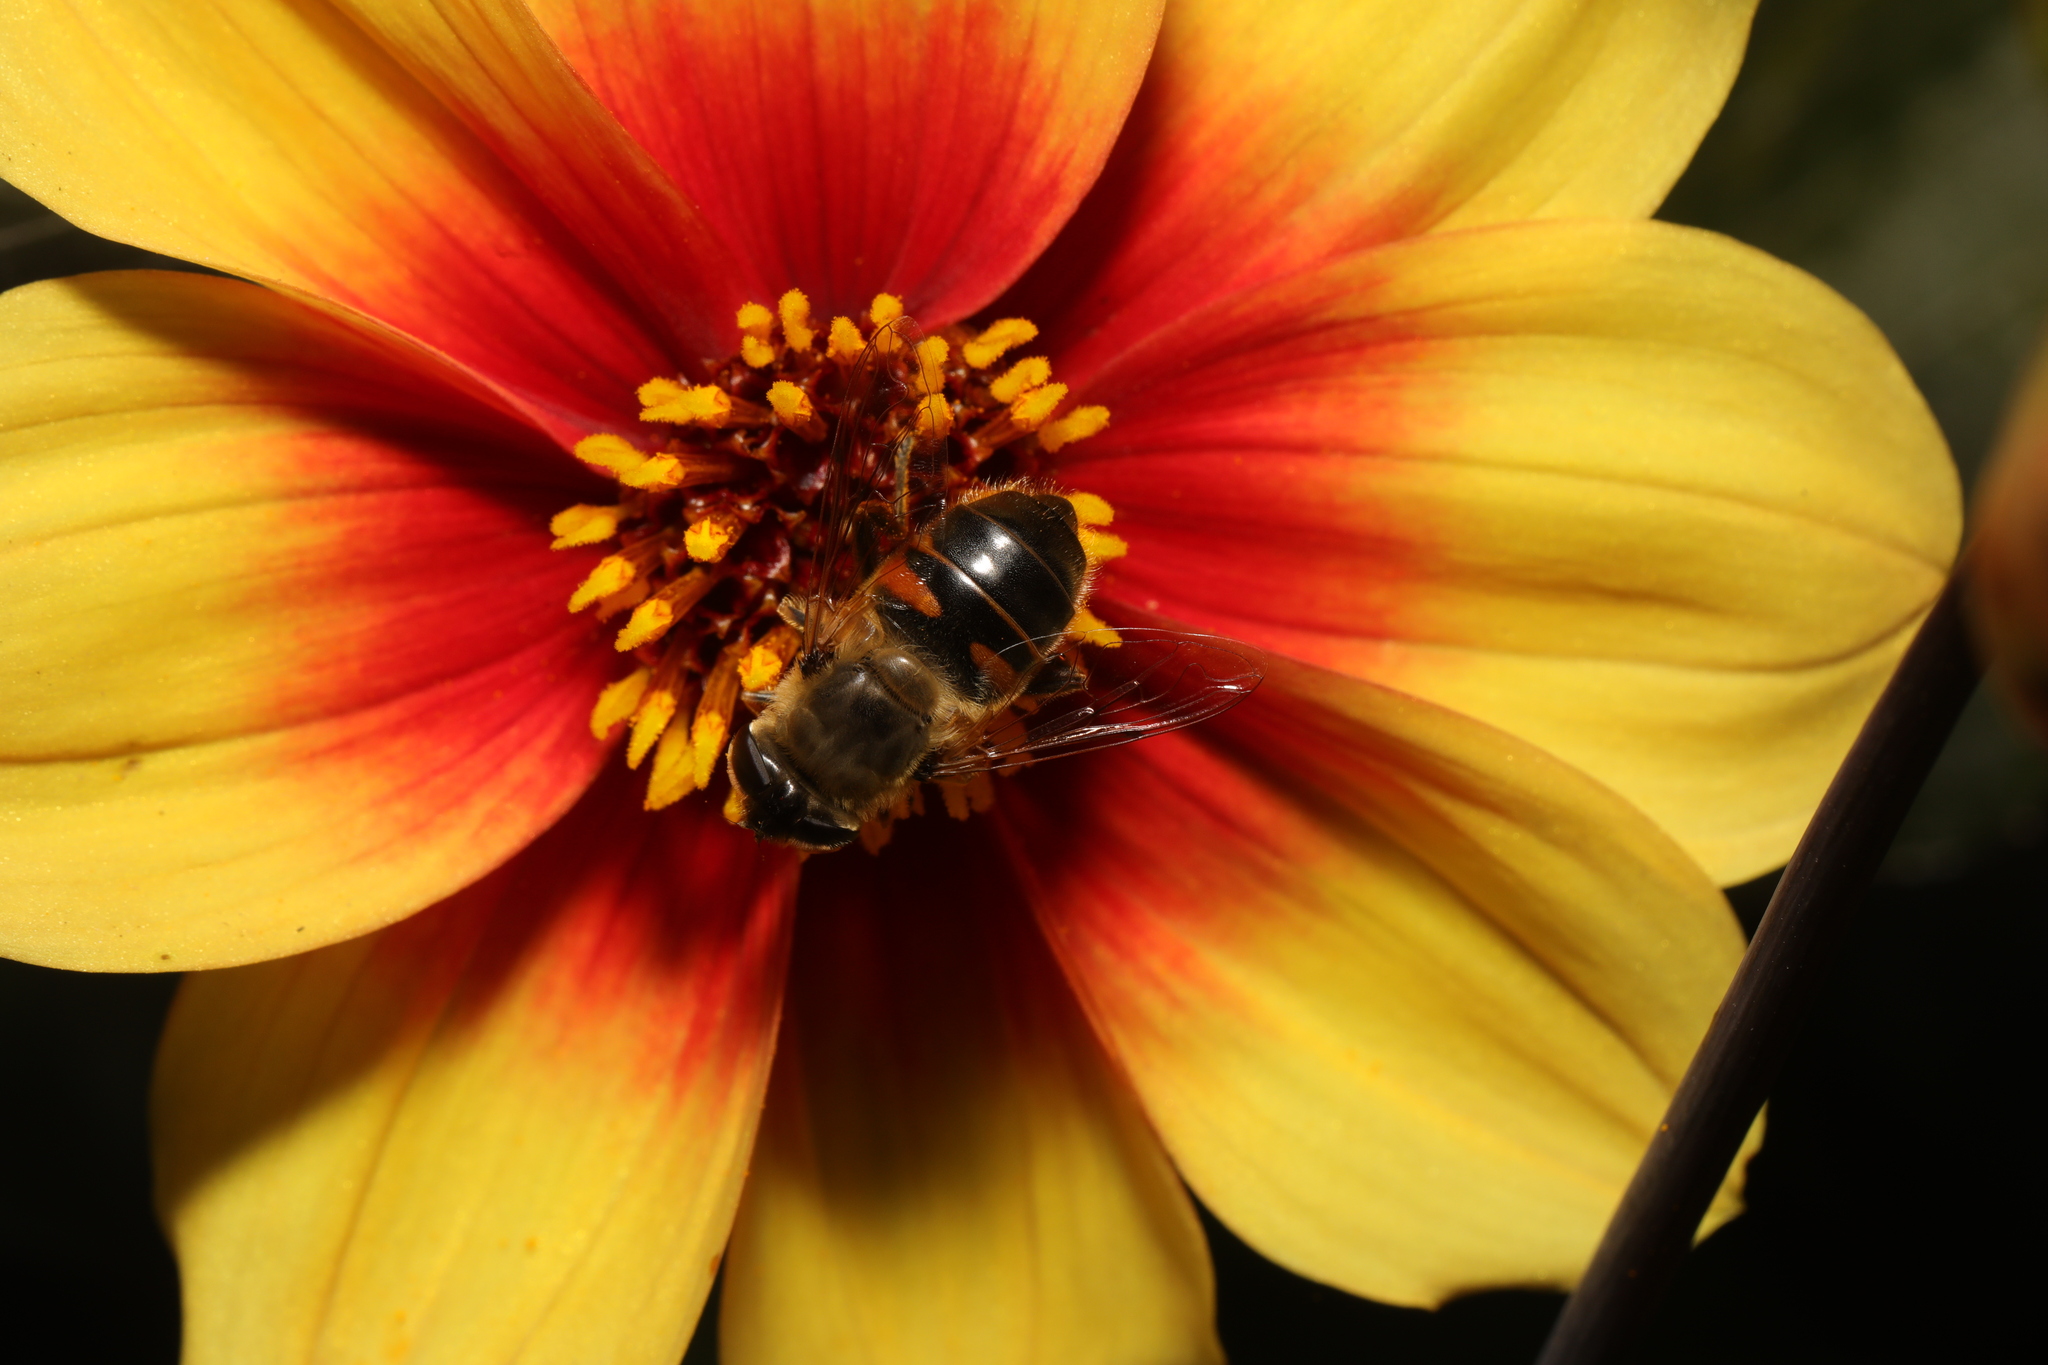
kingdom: Animalia
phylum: Arthropoda
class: Insecta
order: Diptera
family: Syrphidae
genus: Eristalis
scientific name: Eristalis tenax
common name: Drone fly
